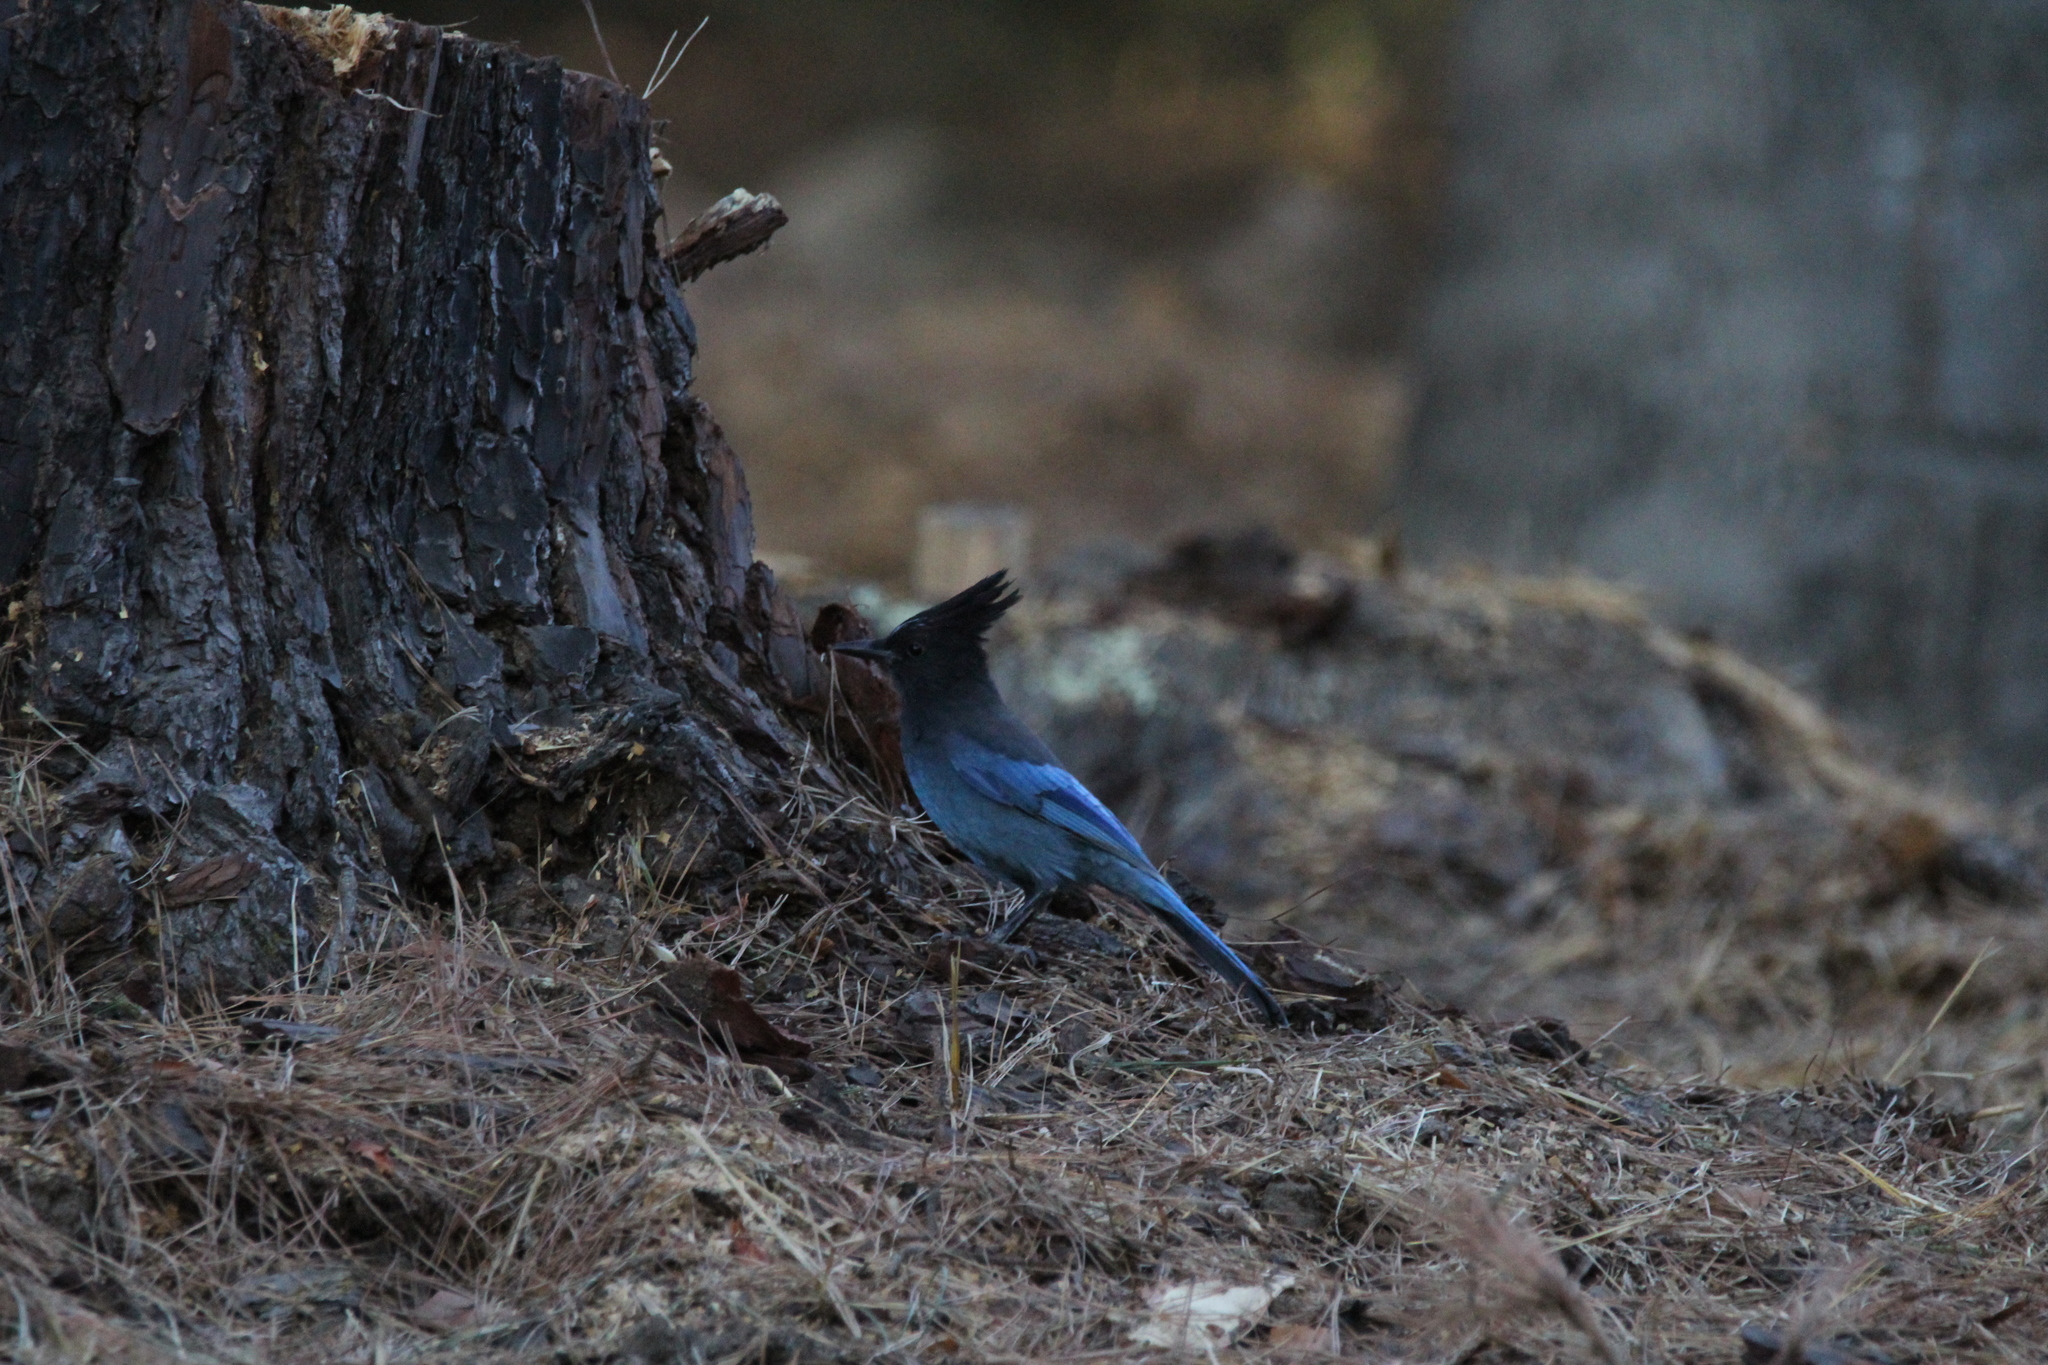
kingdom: Animalia
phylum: Chordata
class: Aves
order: Passeriformes
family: Corvidae
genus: Cyanocitta
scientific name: Cyanocitta stelleri
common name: Steller's jay
